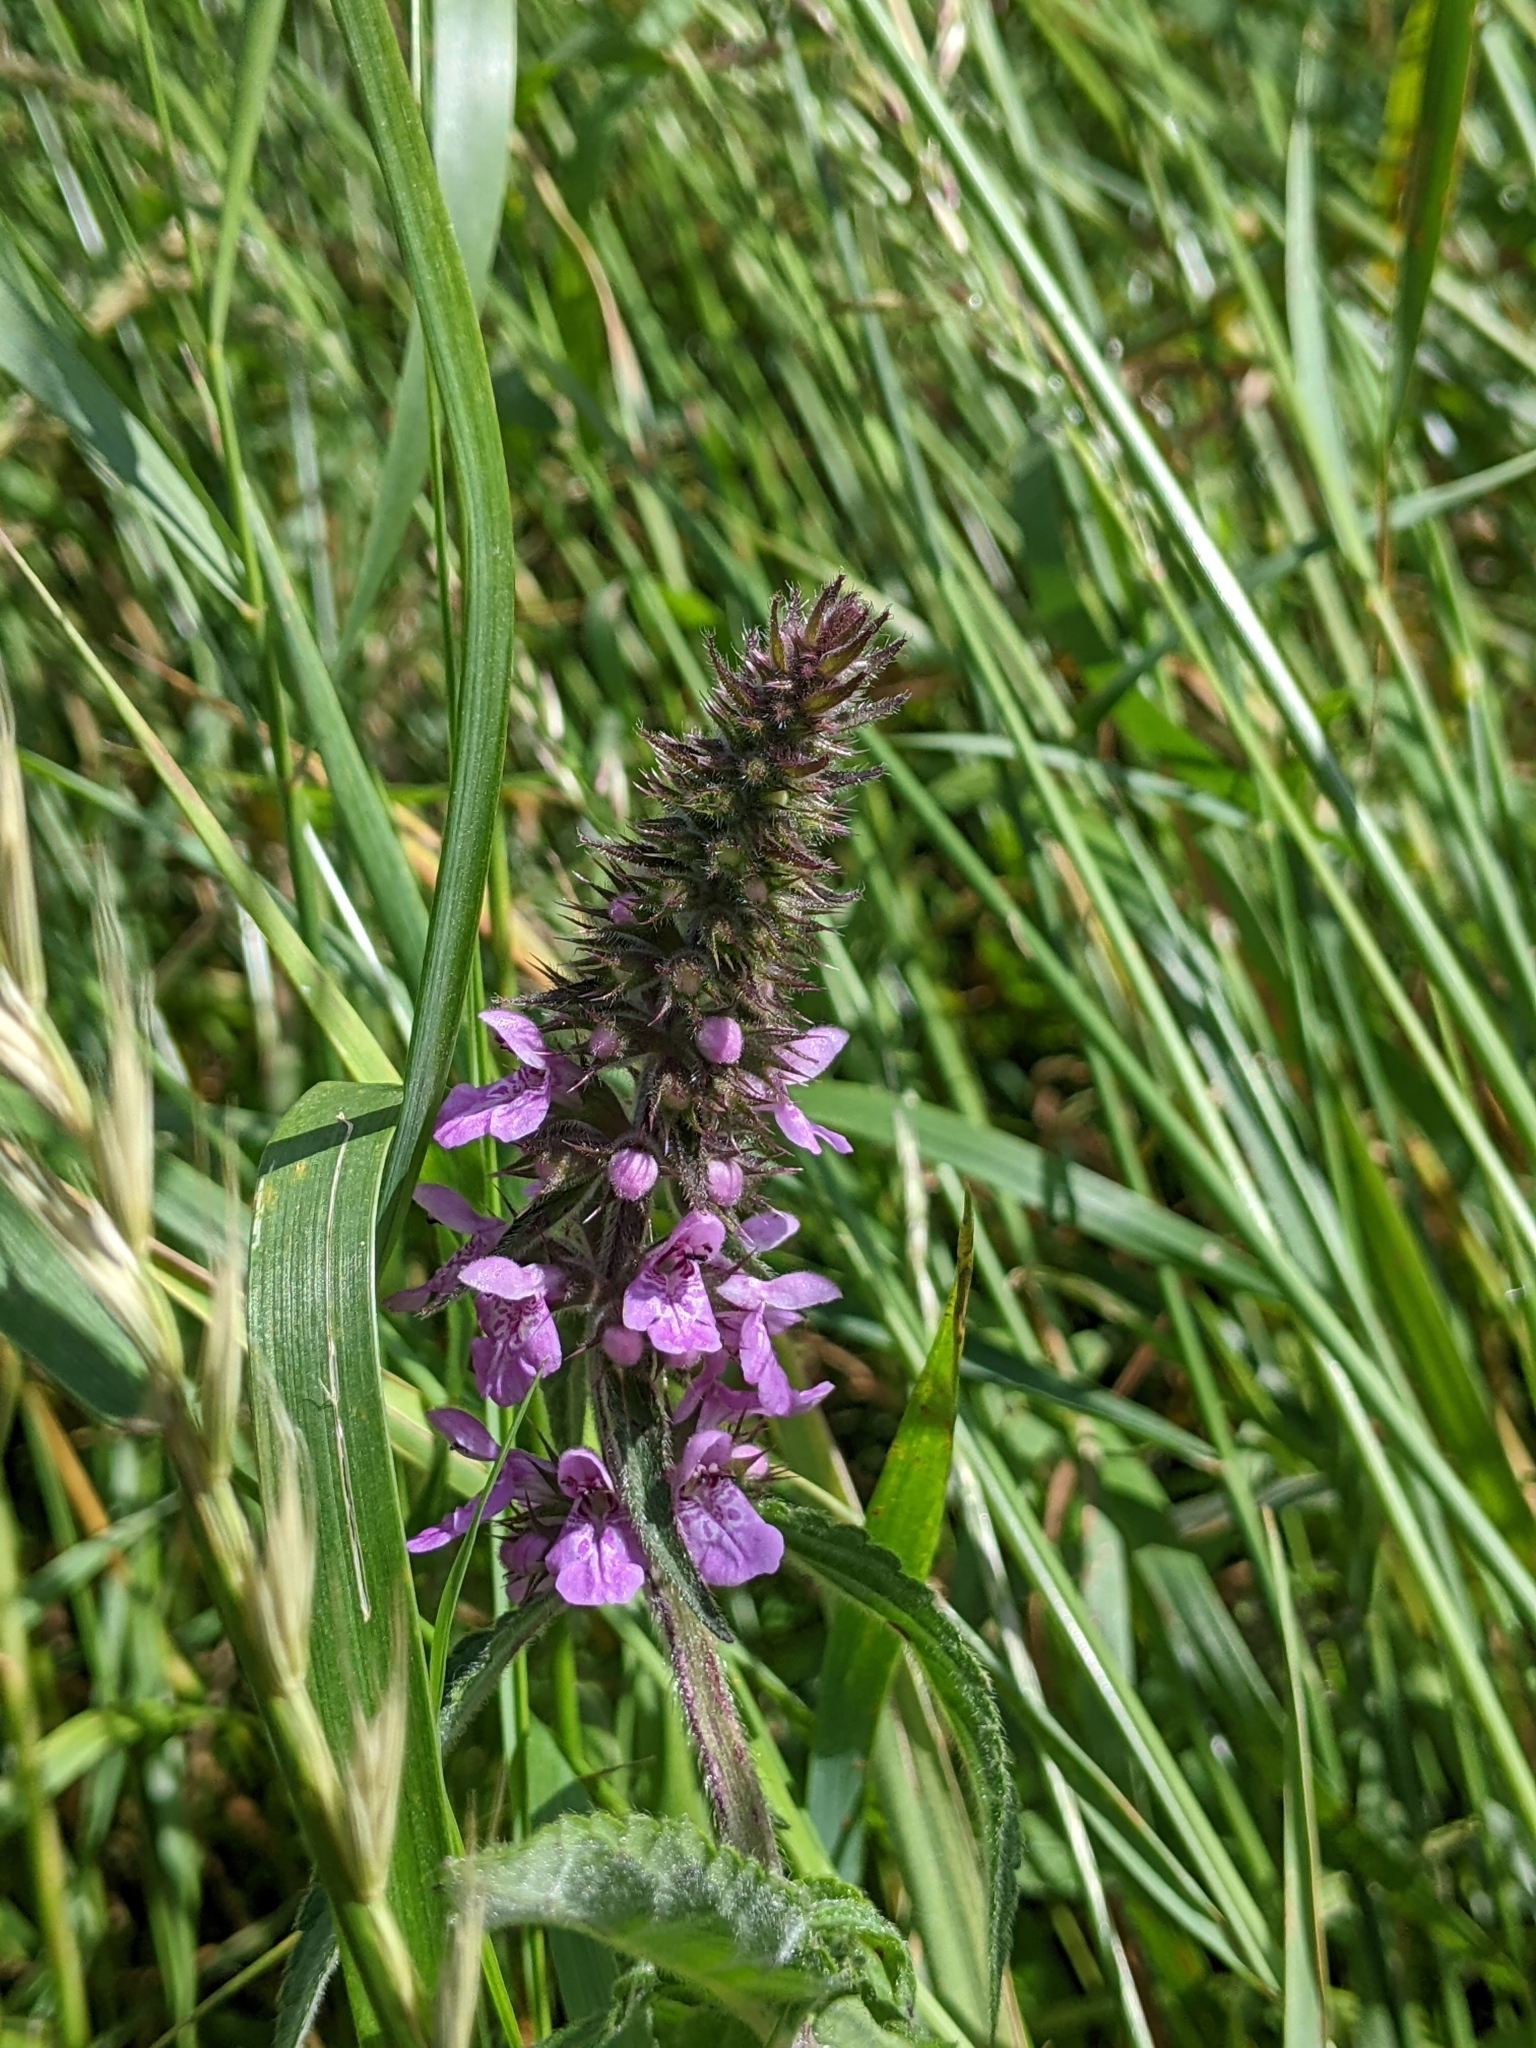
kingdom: Plantae
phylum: Tracheophyta
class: Magnoliopsida
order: Lamiales
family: Lamiaceae
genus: Stachys
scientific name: Stachys palustris
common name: Marsh woundwort
